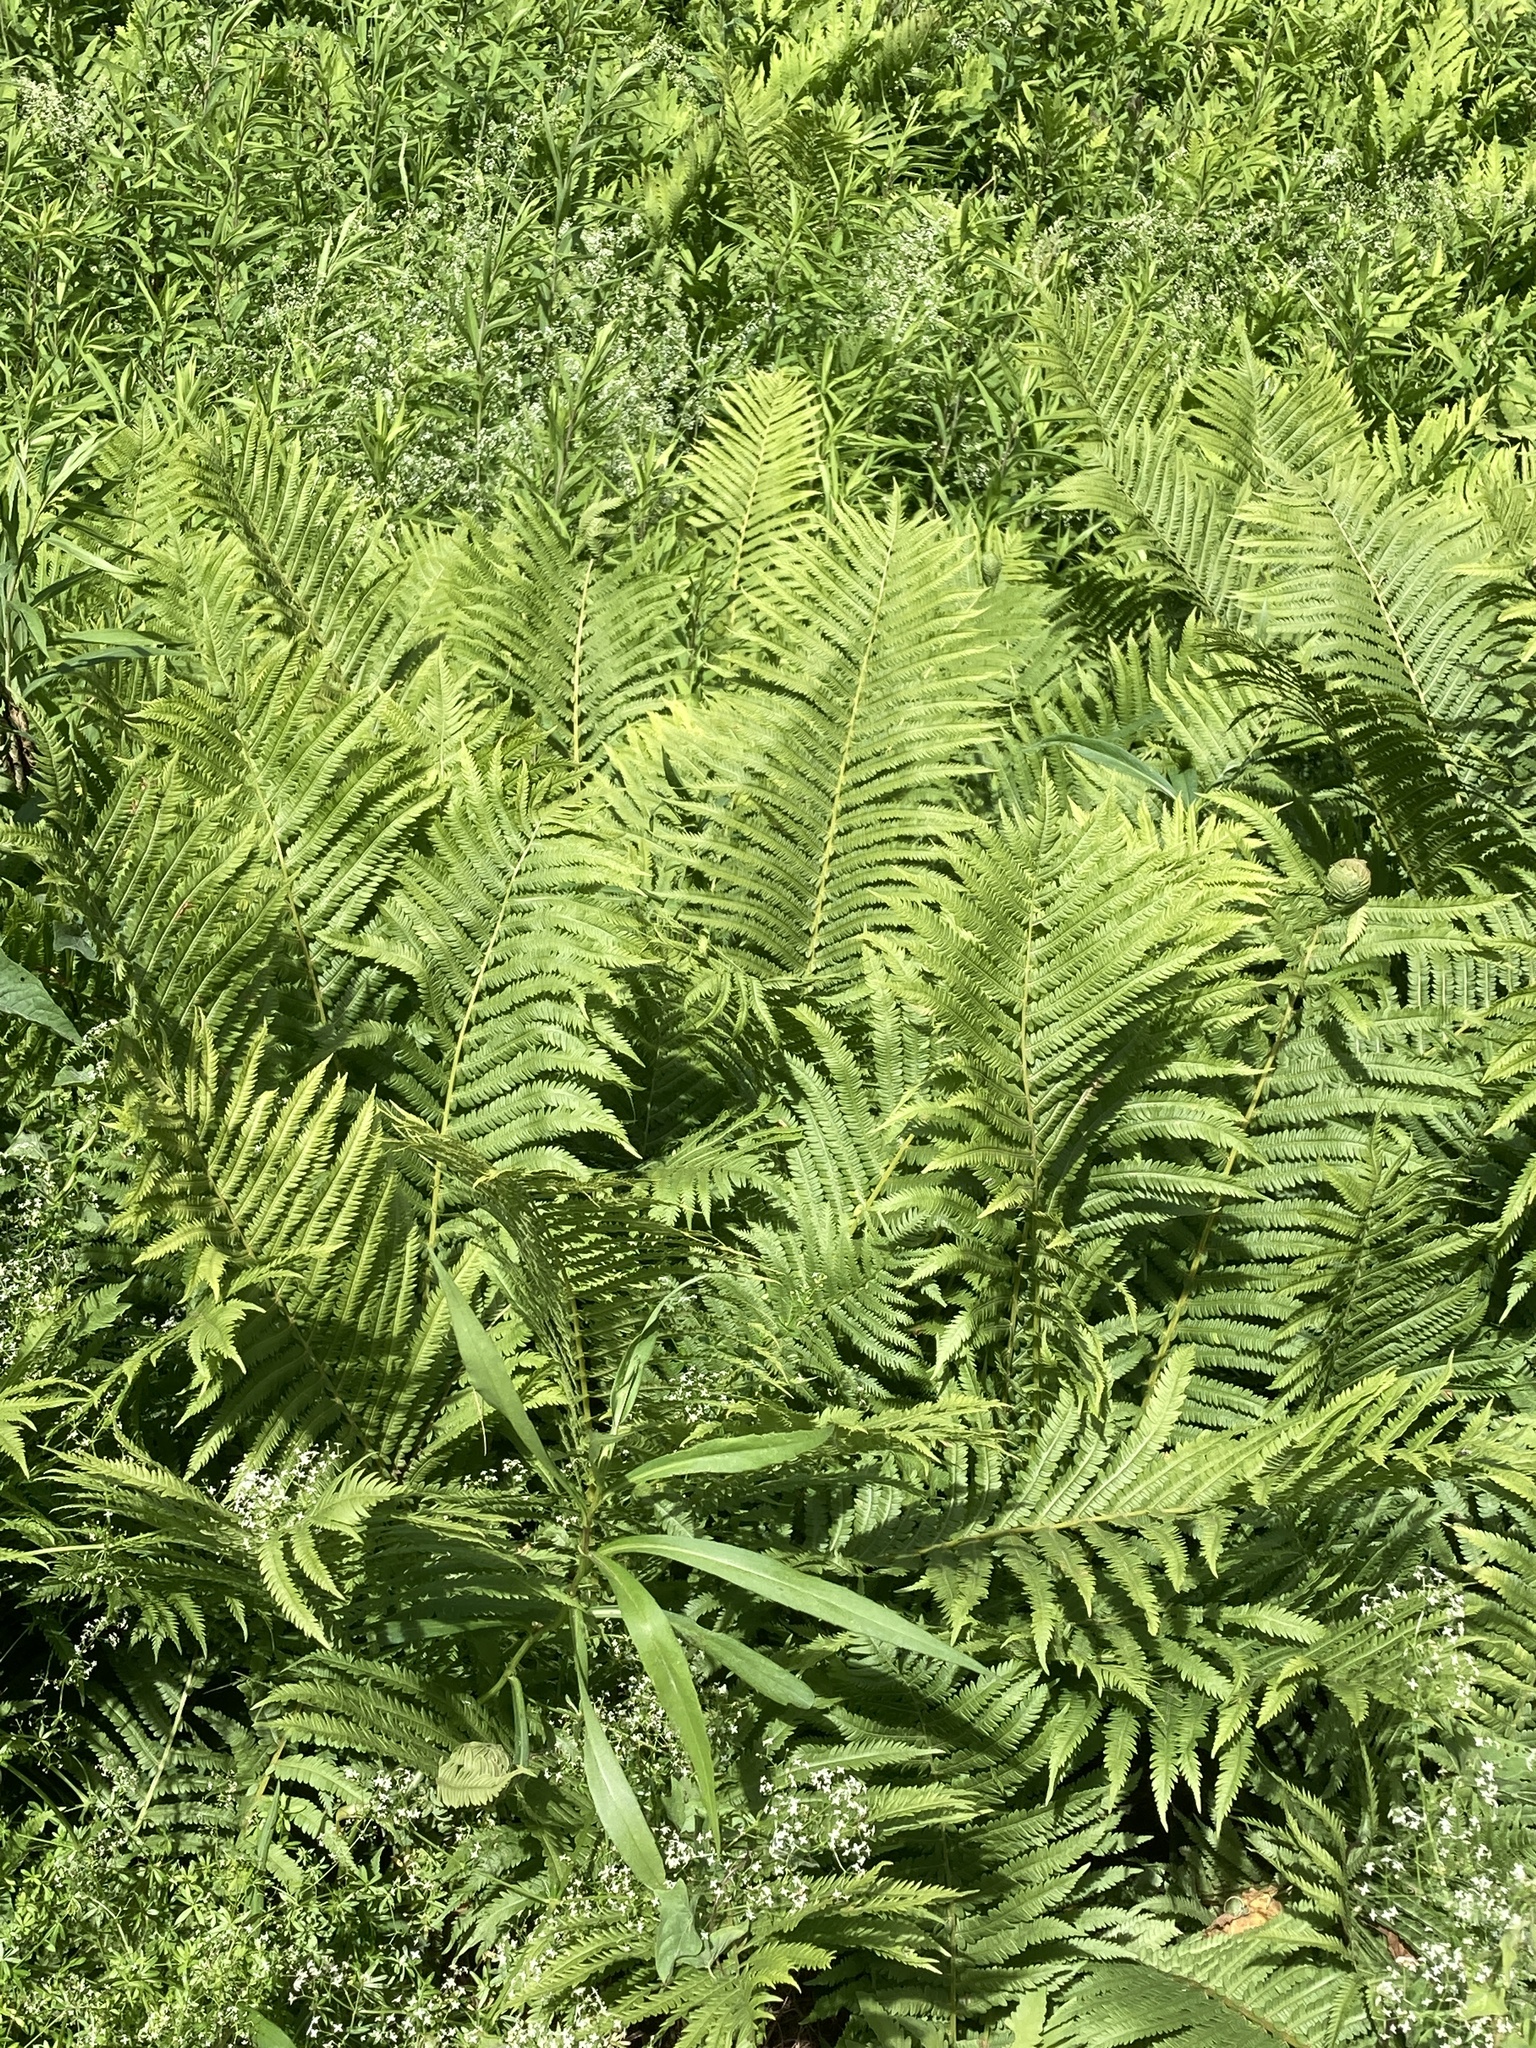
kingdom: Plantae
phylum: Tracheophyta
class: Polypodiopsida
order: Polypodiales
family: Onocleaceae
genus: Matteuccia
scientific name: Matteuccia struthiopteris
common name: Ostrich fern
